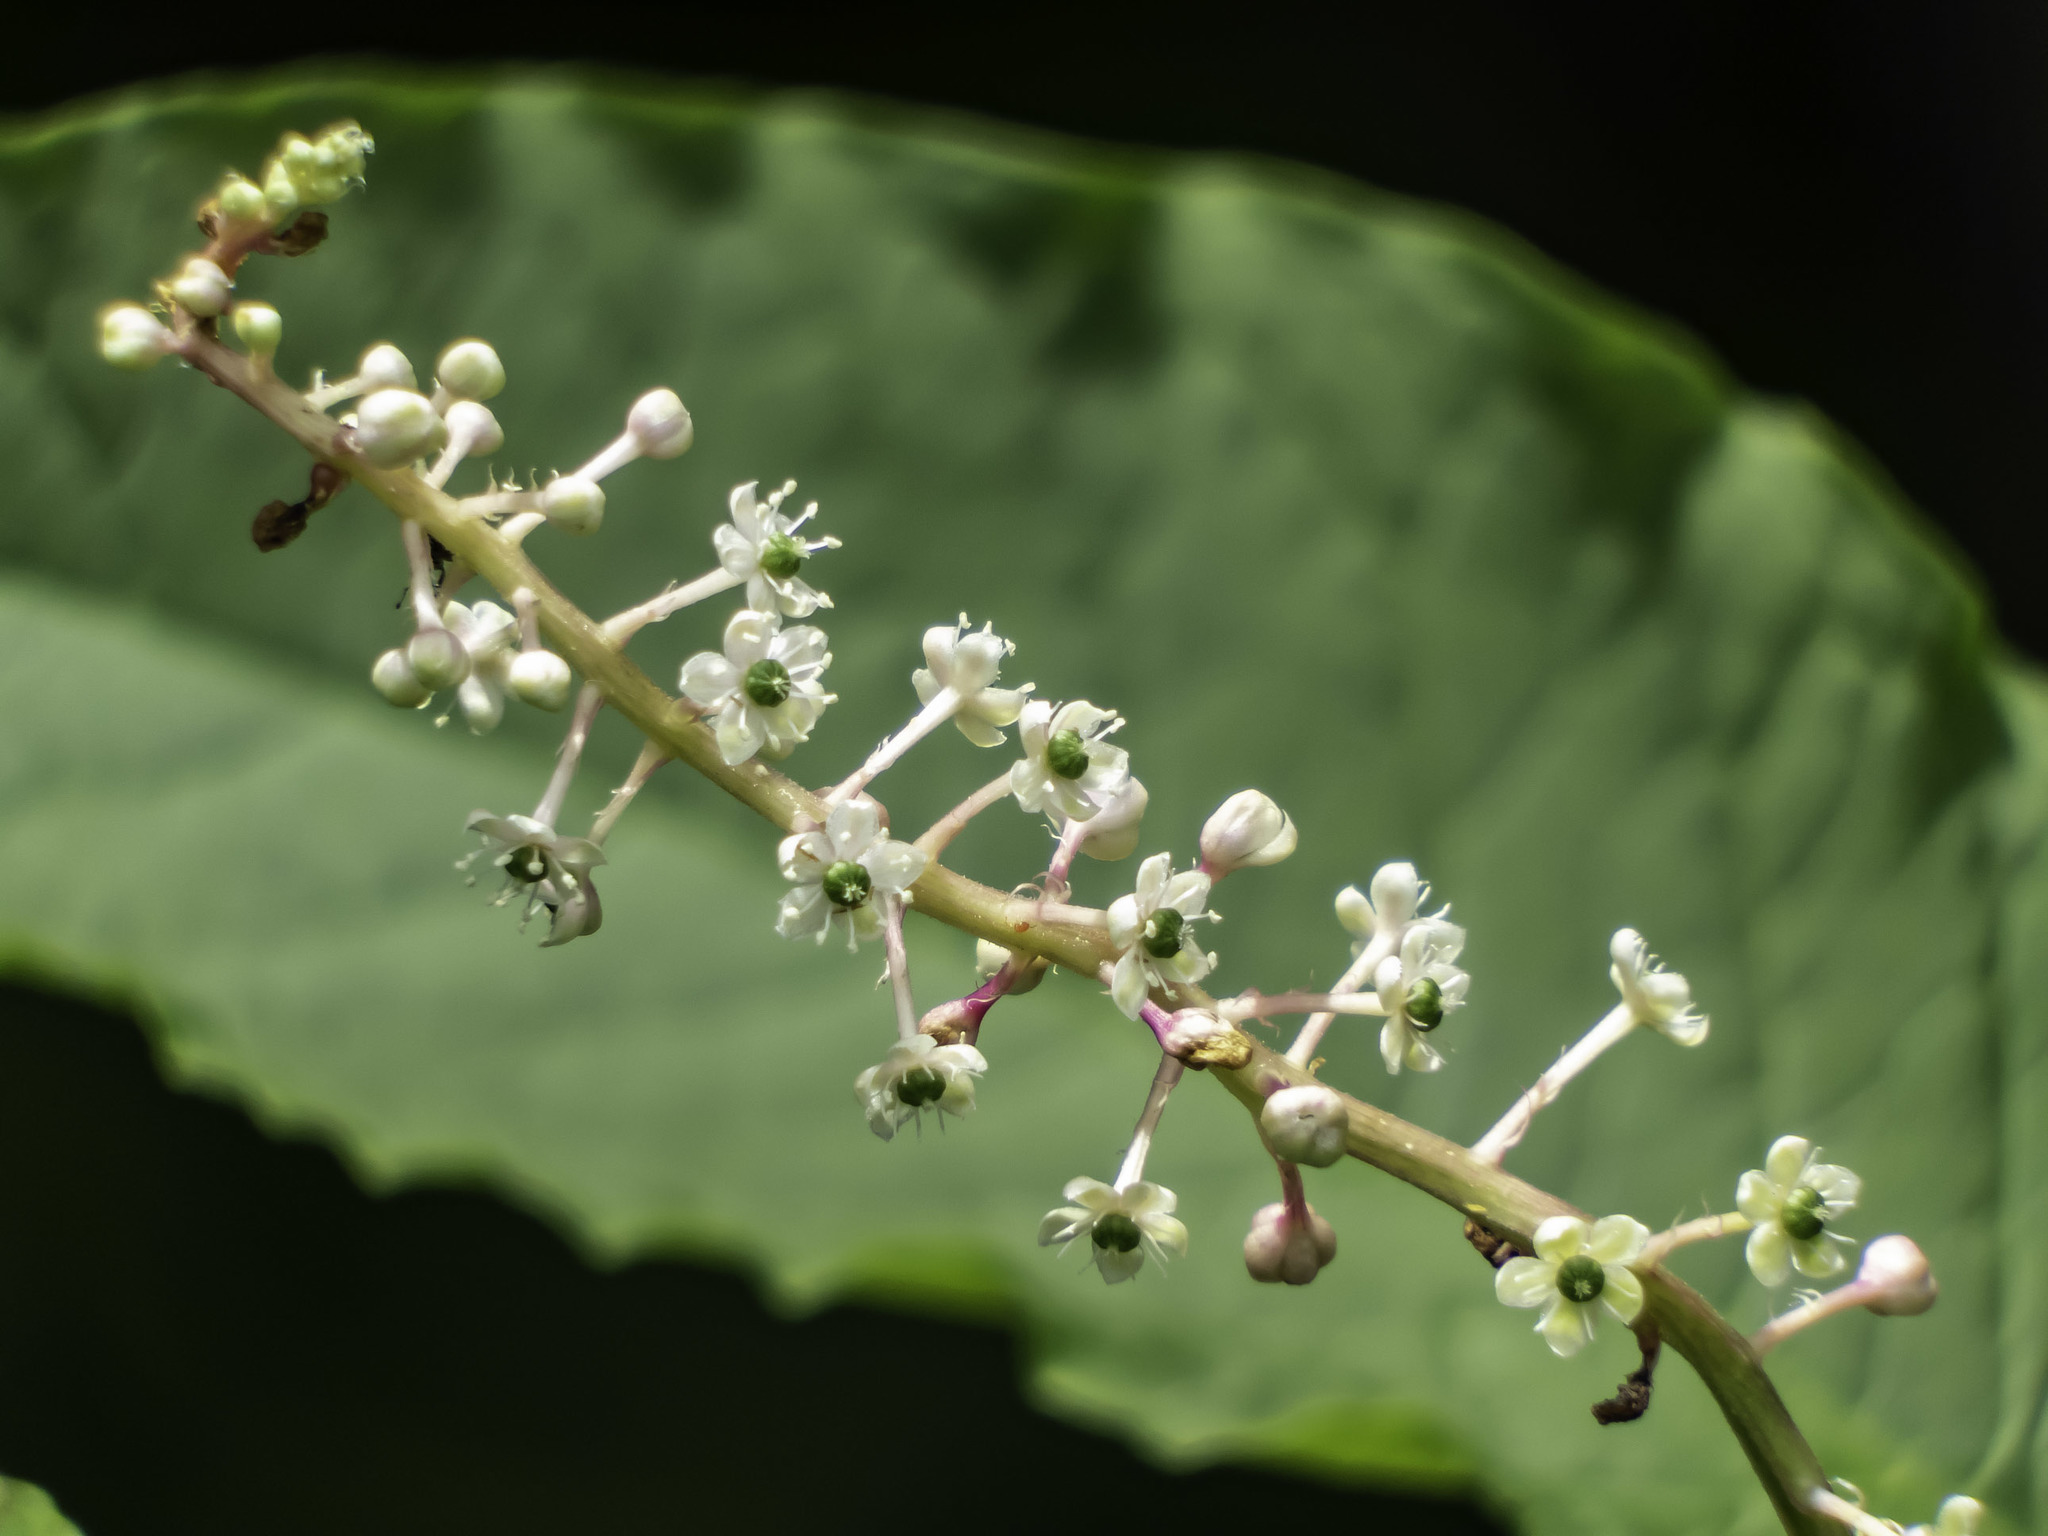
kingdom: Plantae
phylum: Tracheophyta
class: Magnoliopsida
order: Caryophyllales
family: Phytolaccaceae
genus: Phytolacca
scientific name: Phytolacca americana
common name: American pokeweed
